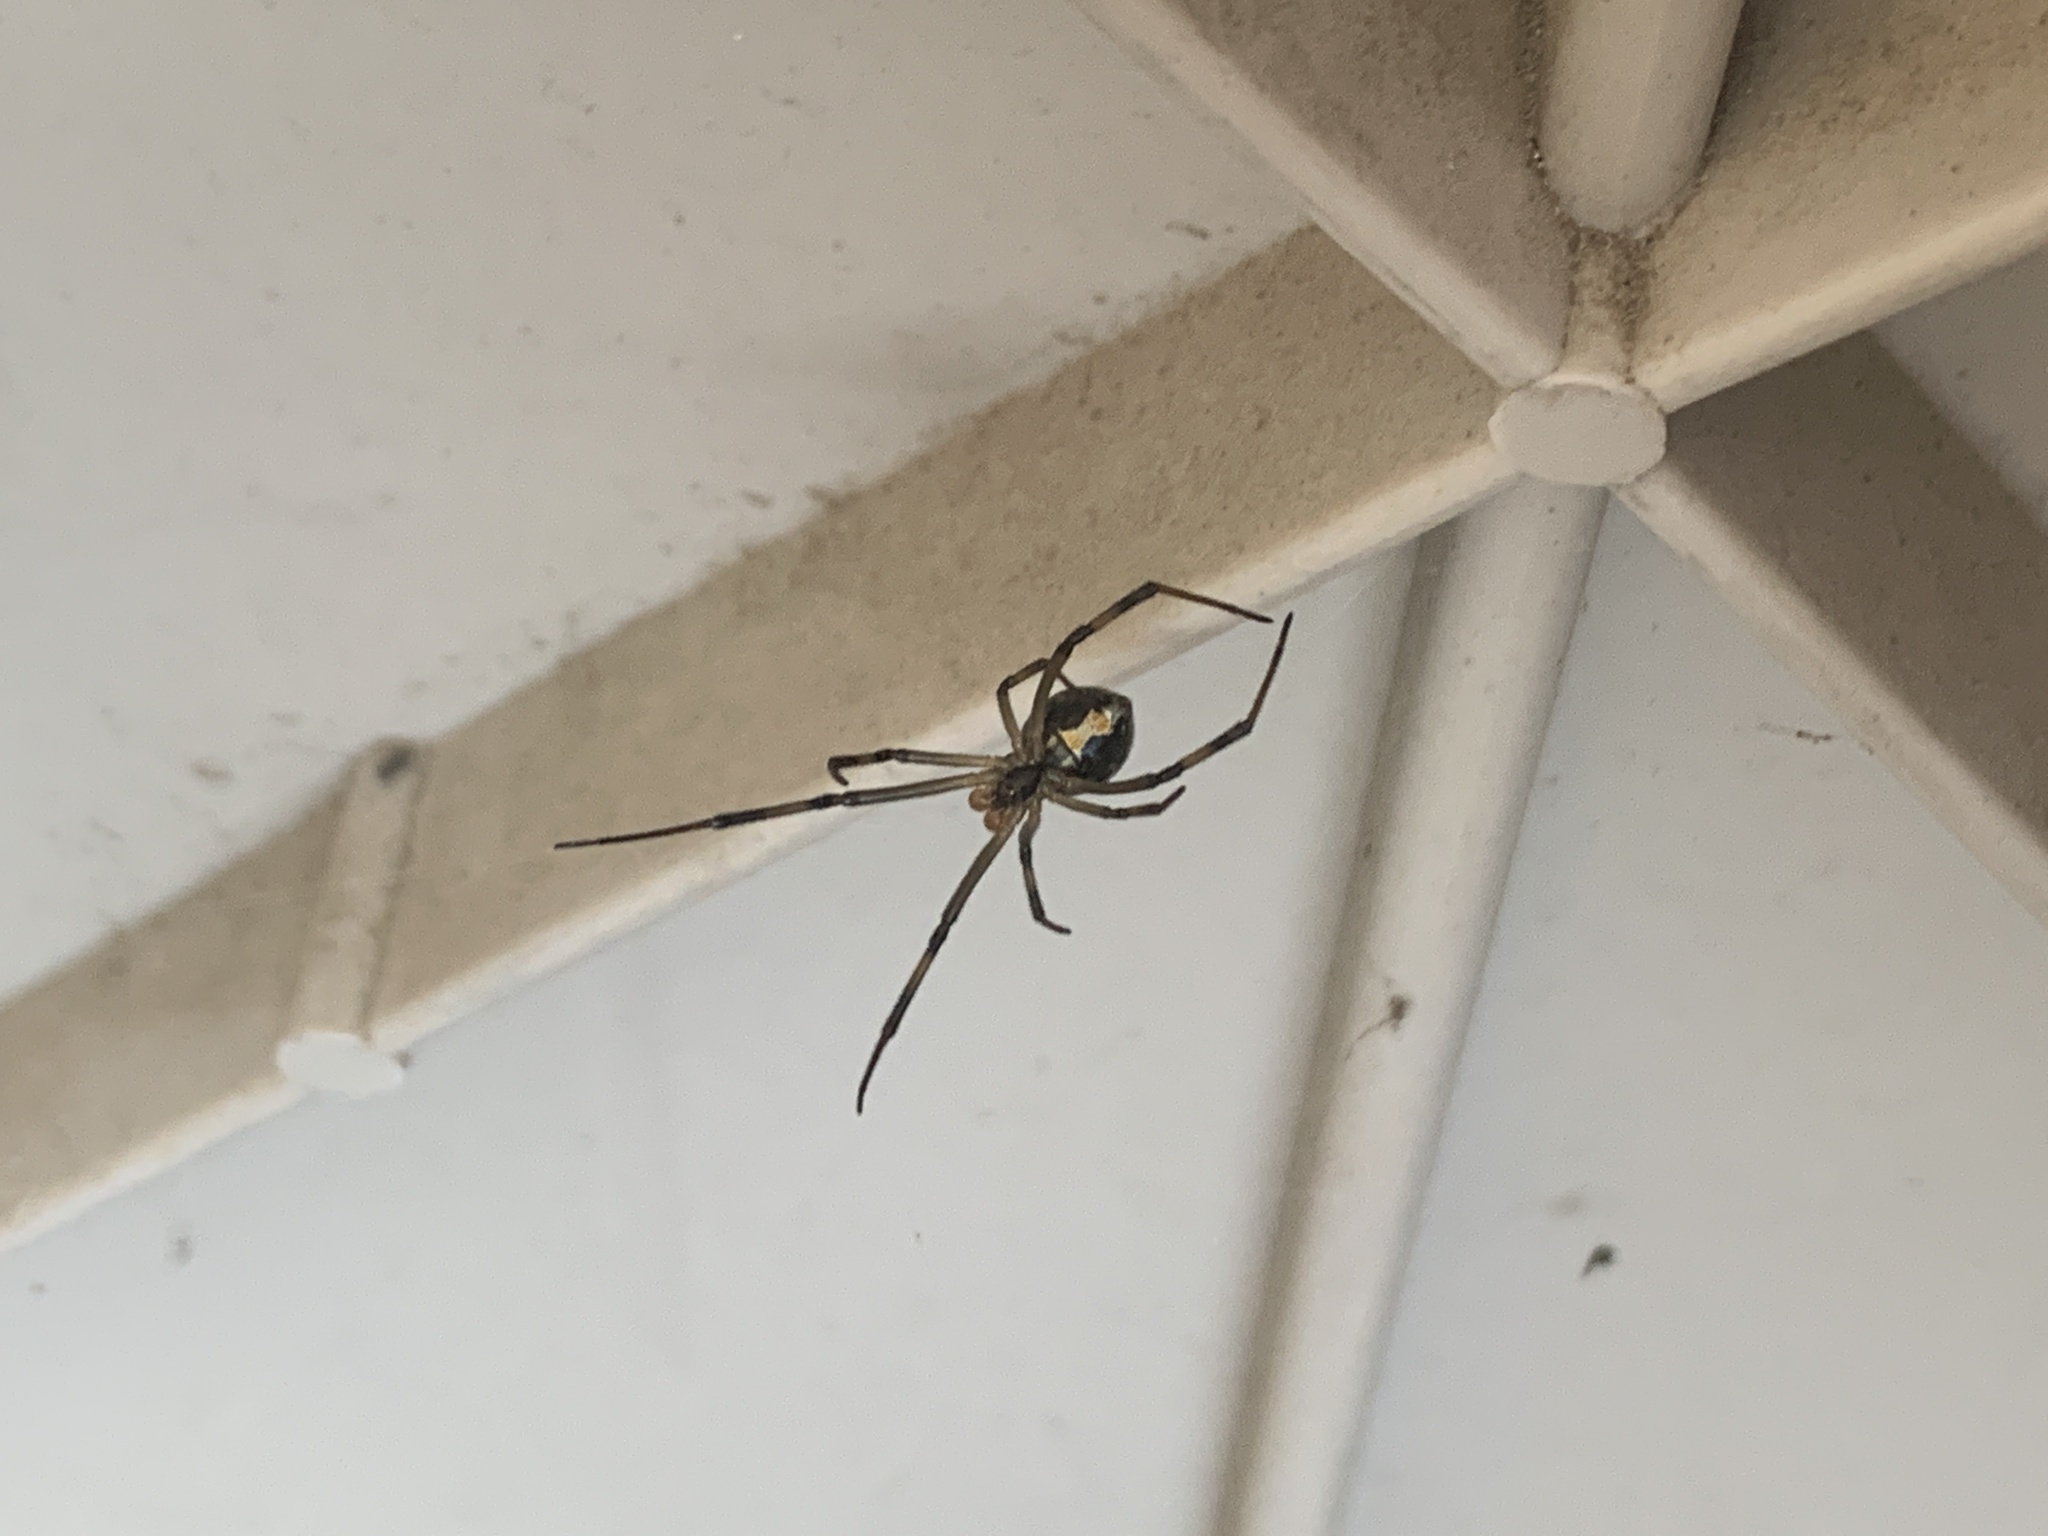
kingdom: Animalia
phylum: Arthropoda
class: Arachnida
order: Araneae
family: Theridiidae
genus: Latrodectus
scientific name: Latrodectus hesperus
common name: Western black widow
